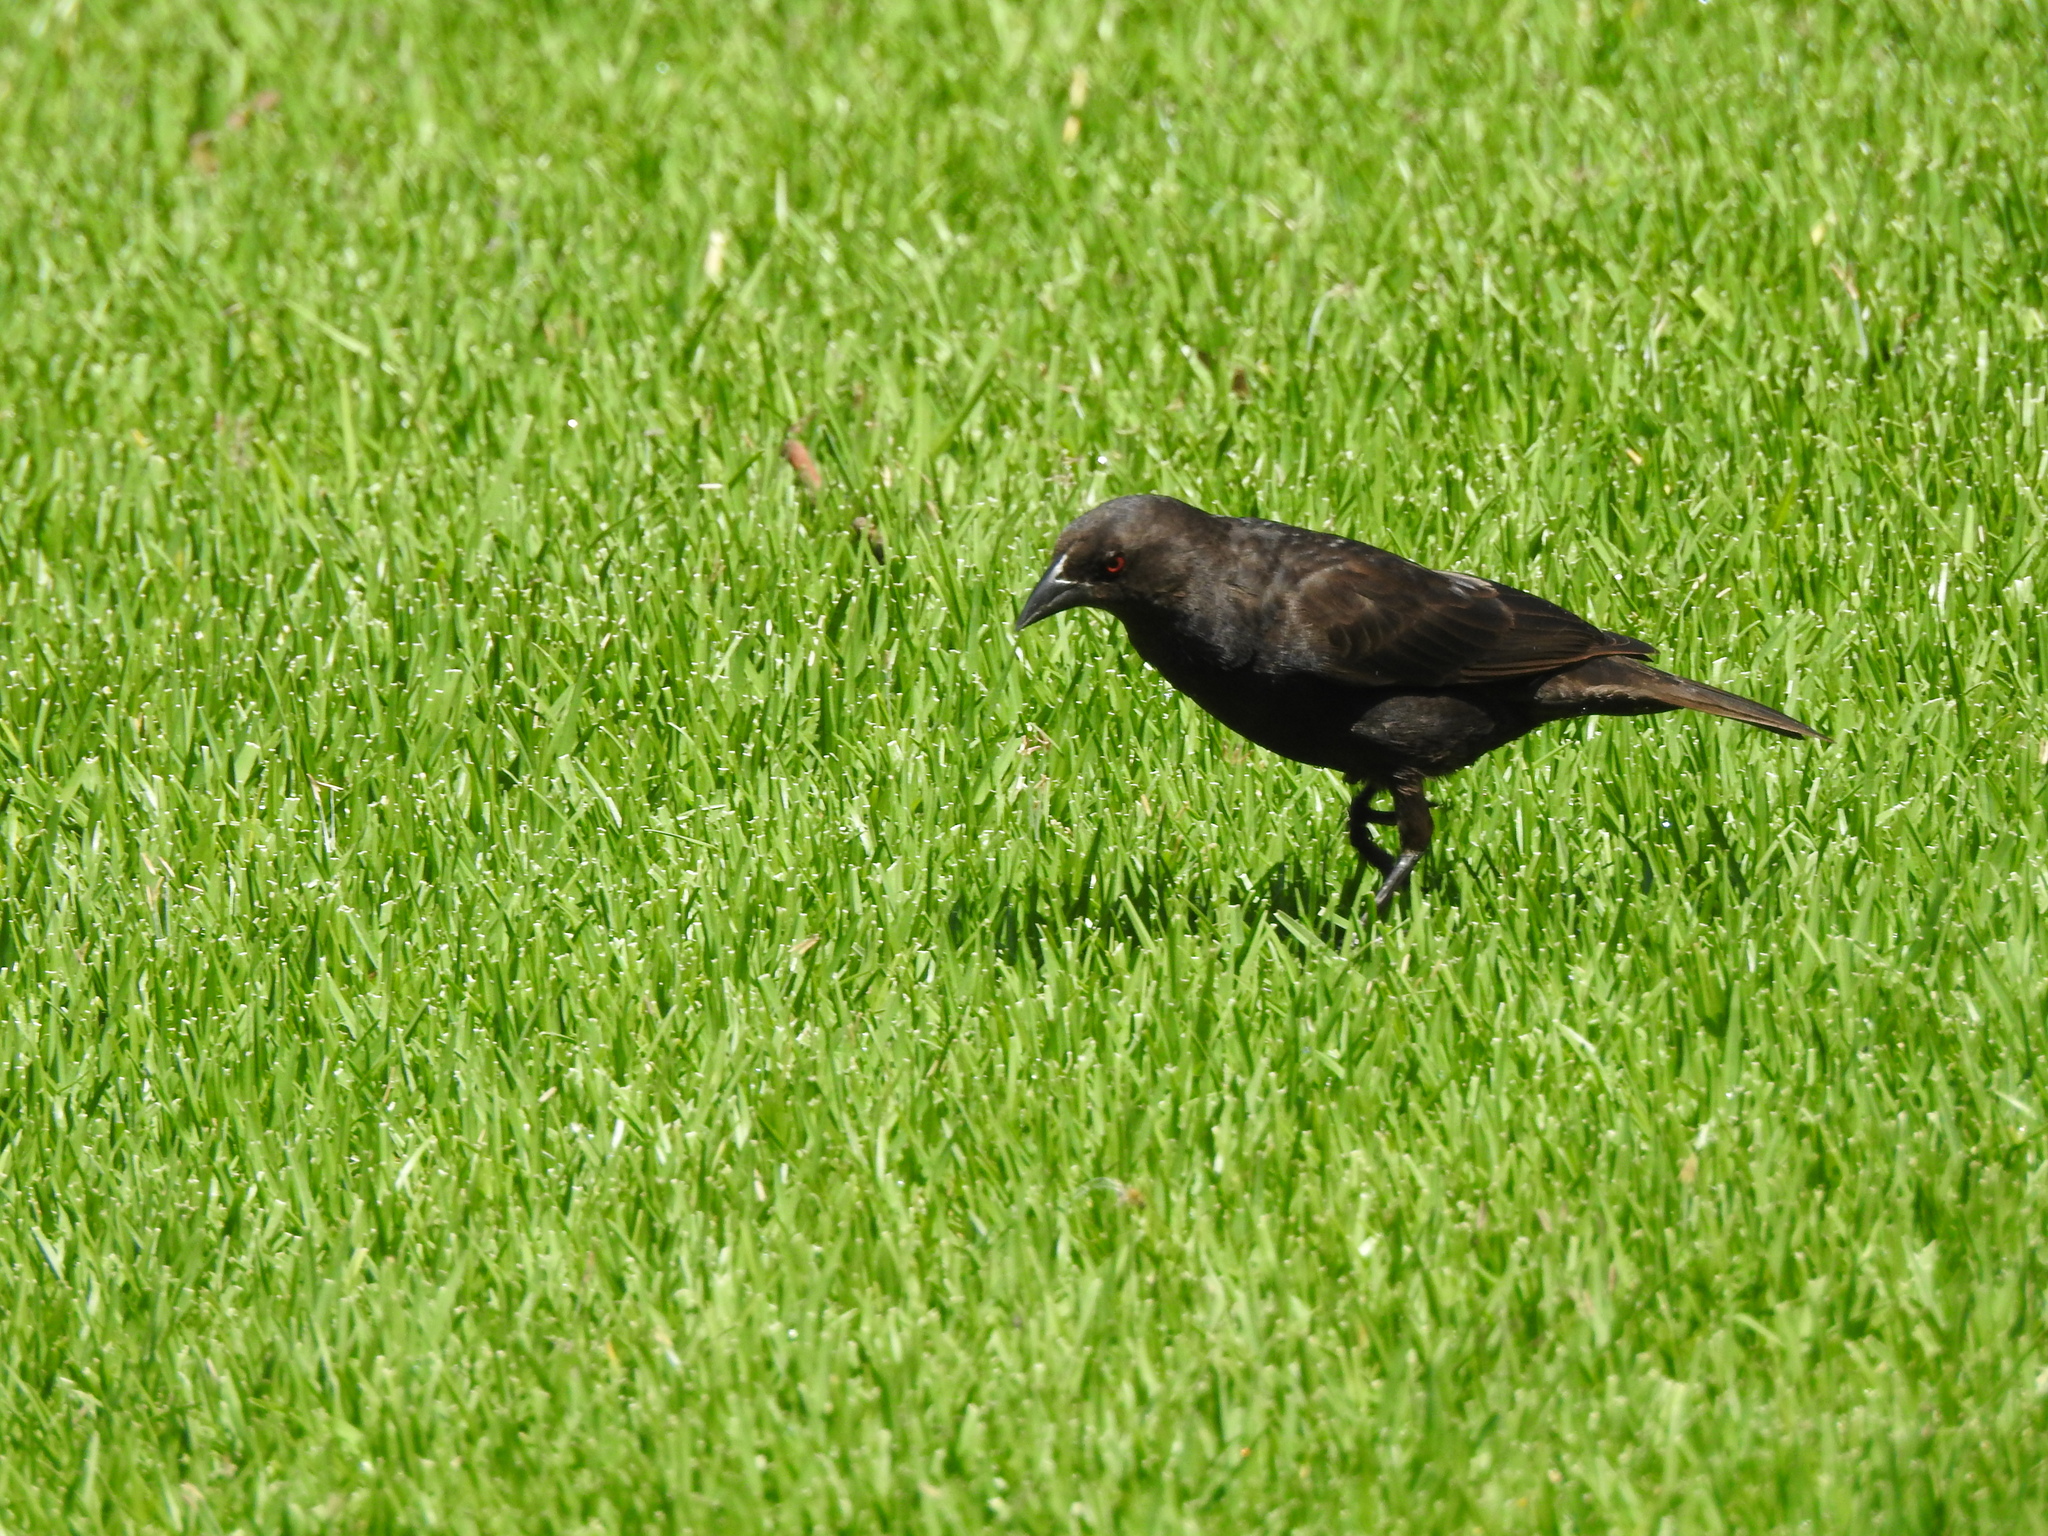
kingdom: Animalia
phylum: Chordata
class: Aves
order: Passeriformes
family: Icteridae
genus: Molothrus
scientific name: Molothrus aeneus
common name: Bronzed cowbird
